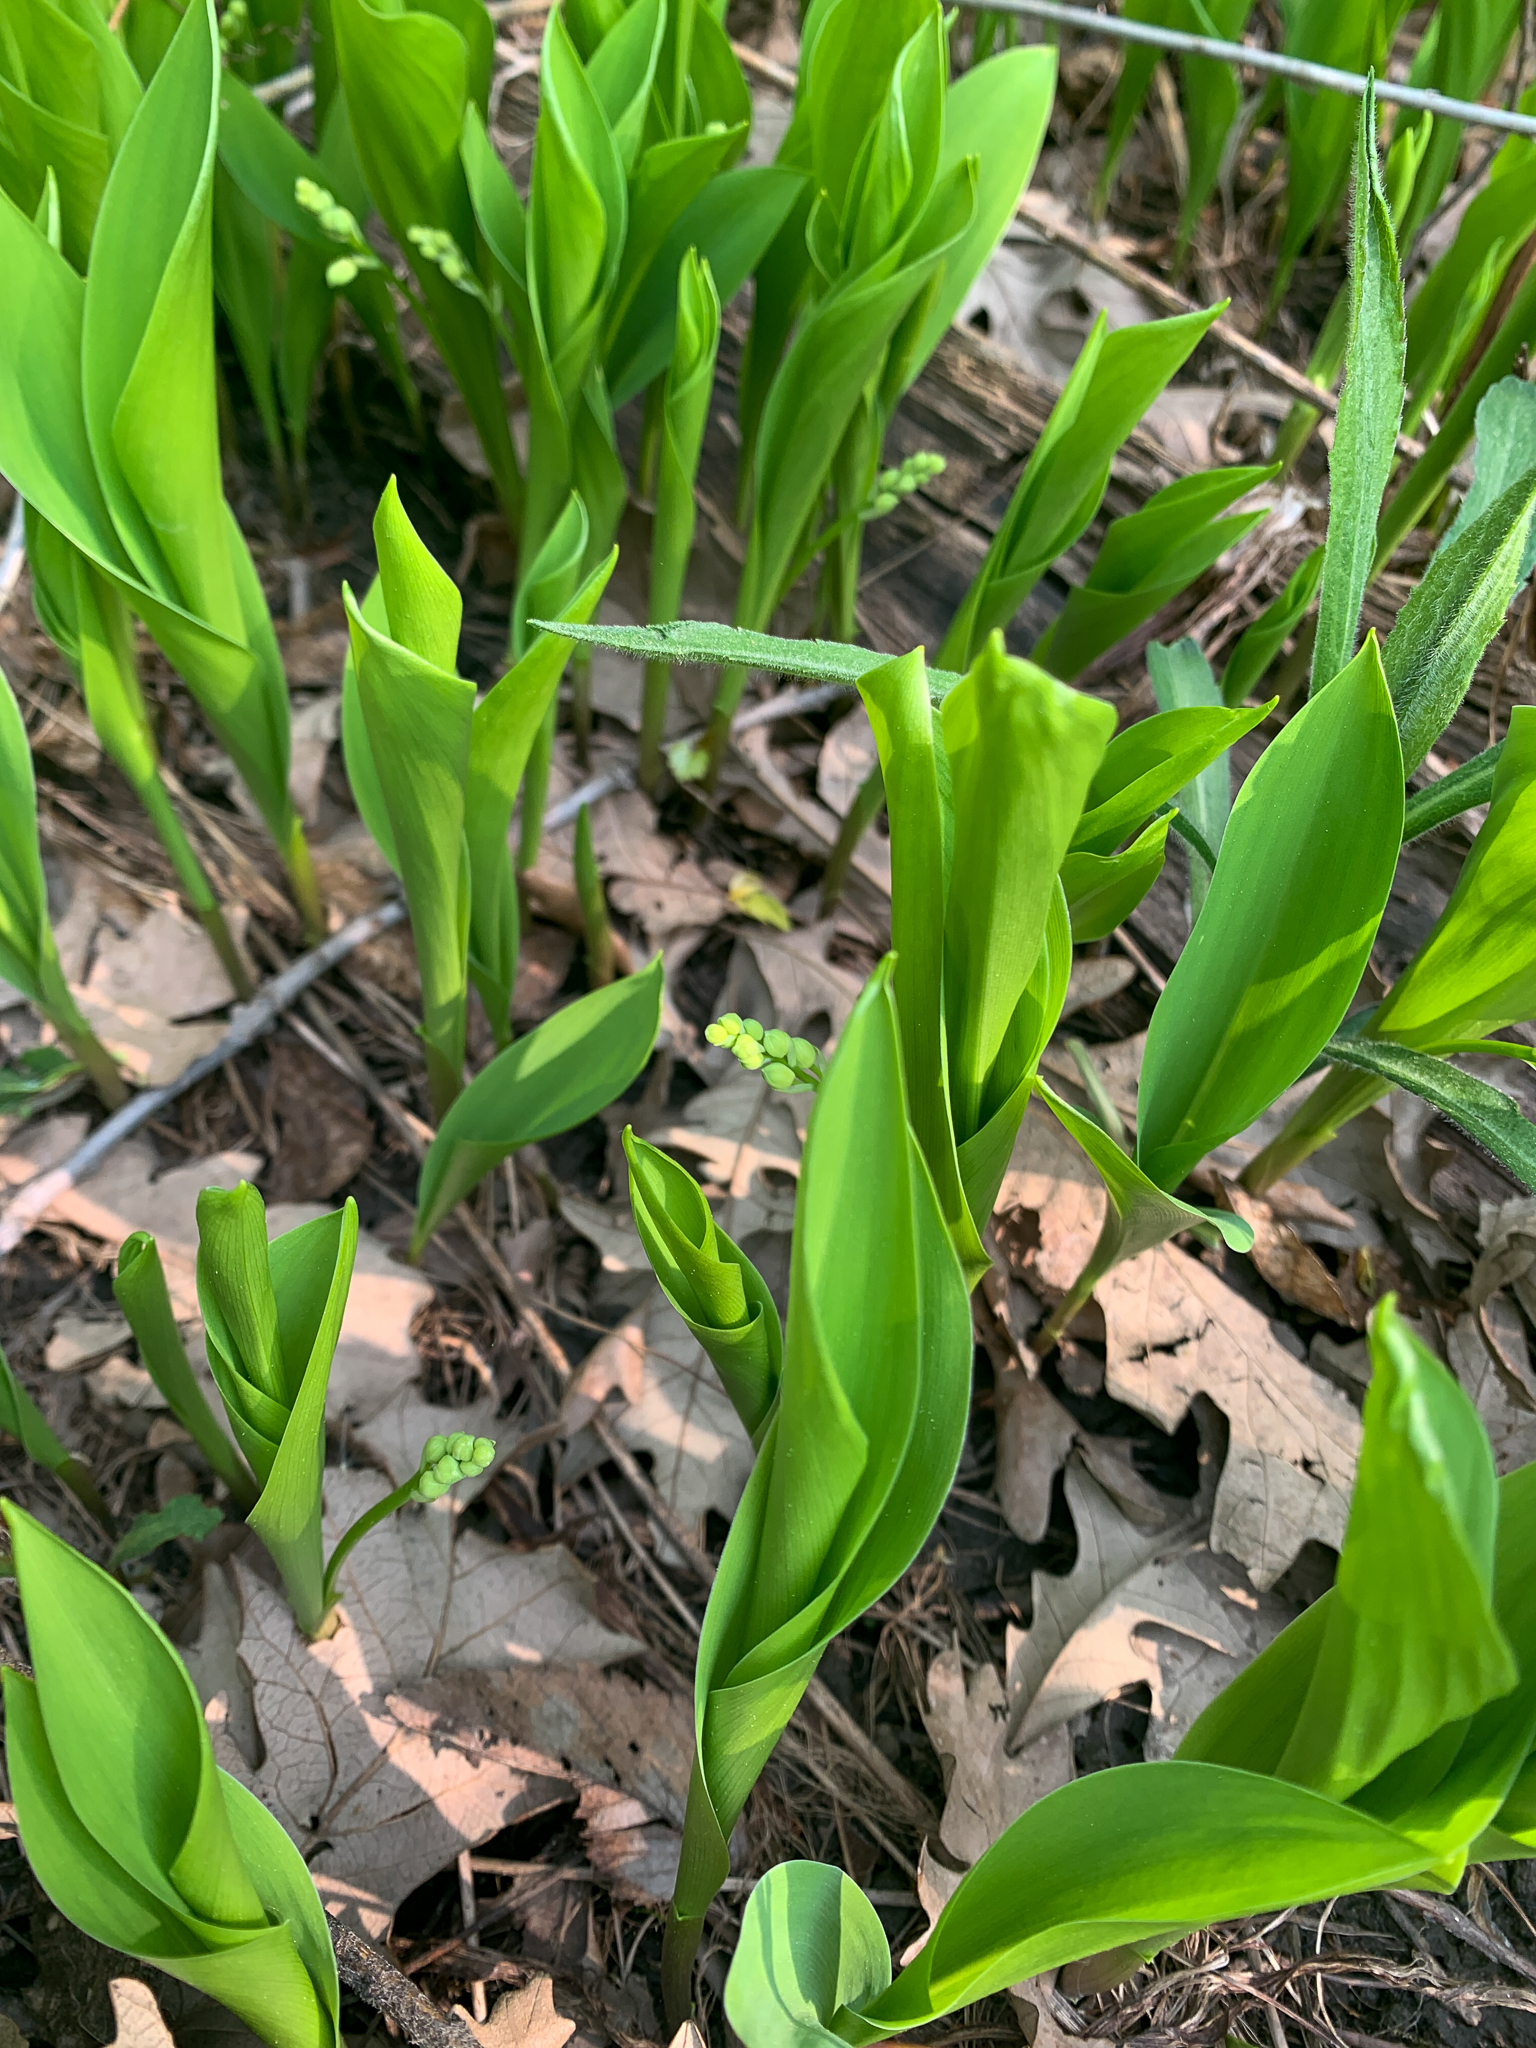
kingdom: Plantae
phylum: Tracheophyta
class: Liliopsida
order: Asparagales
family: Asparagaceae
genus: Convallaria
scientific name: Convallaria majalis
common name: Lily-of-the-valley
